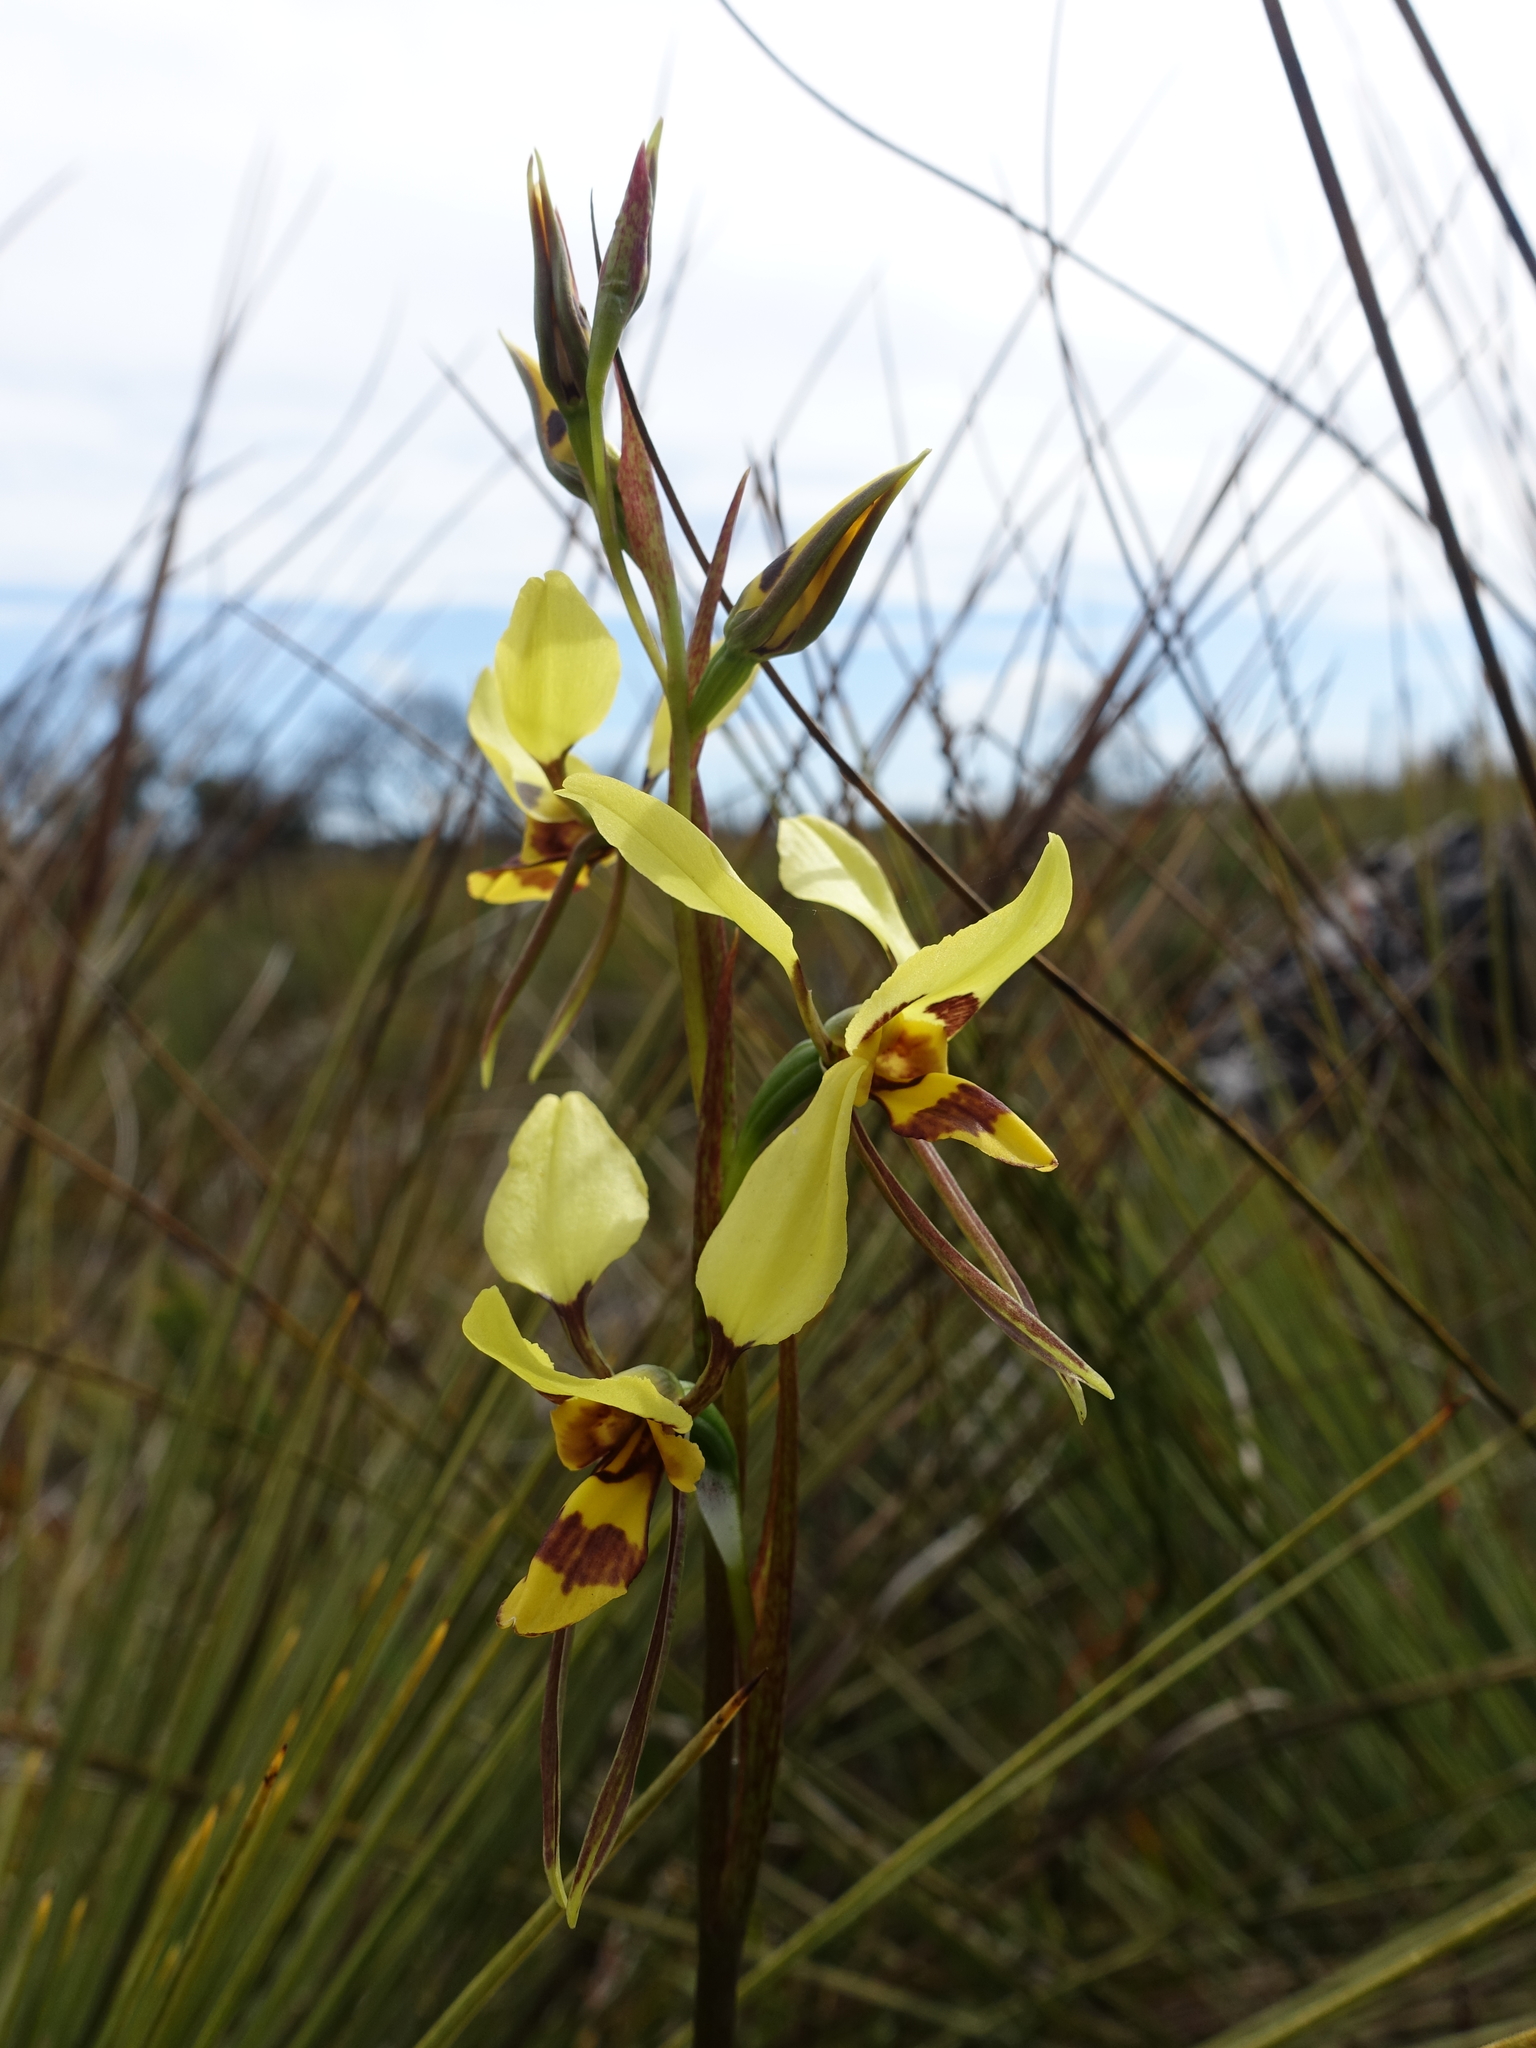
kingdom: Plantae
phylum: Tracheophyta
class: Liliopsida
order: Asparagales
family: Orchidaceae
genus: Diuris
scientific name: Diuris sulphurea
